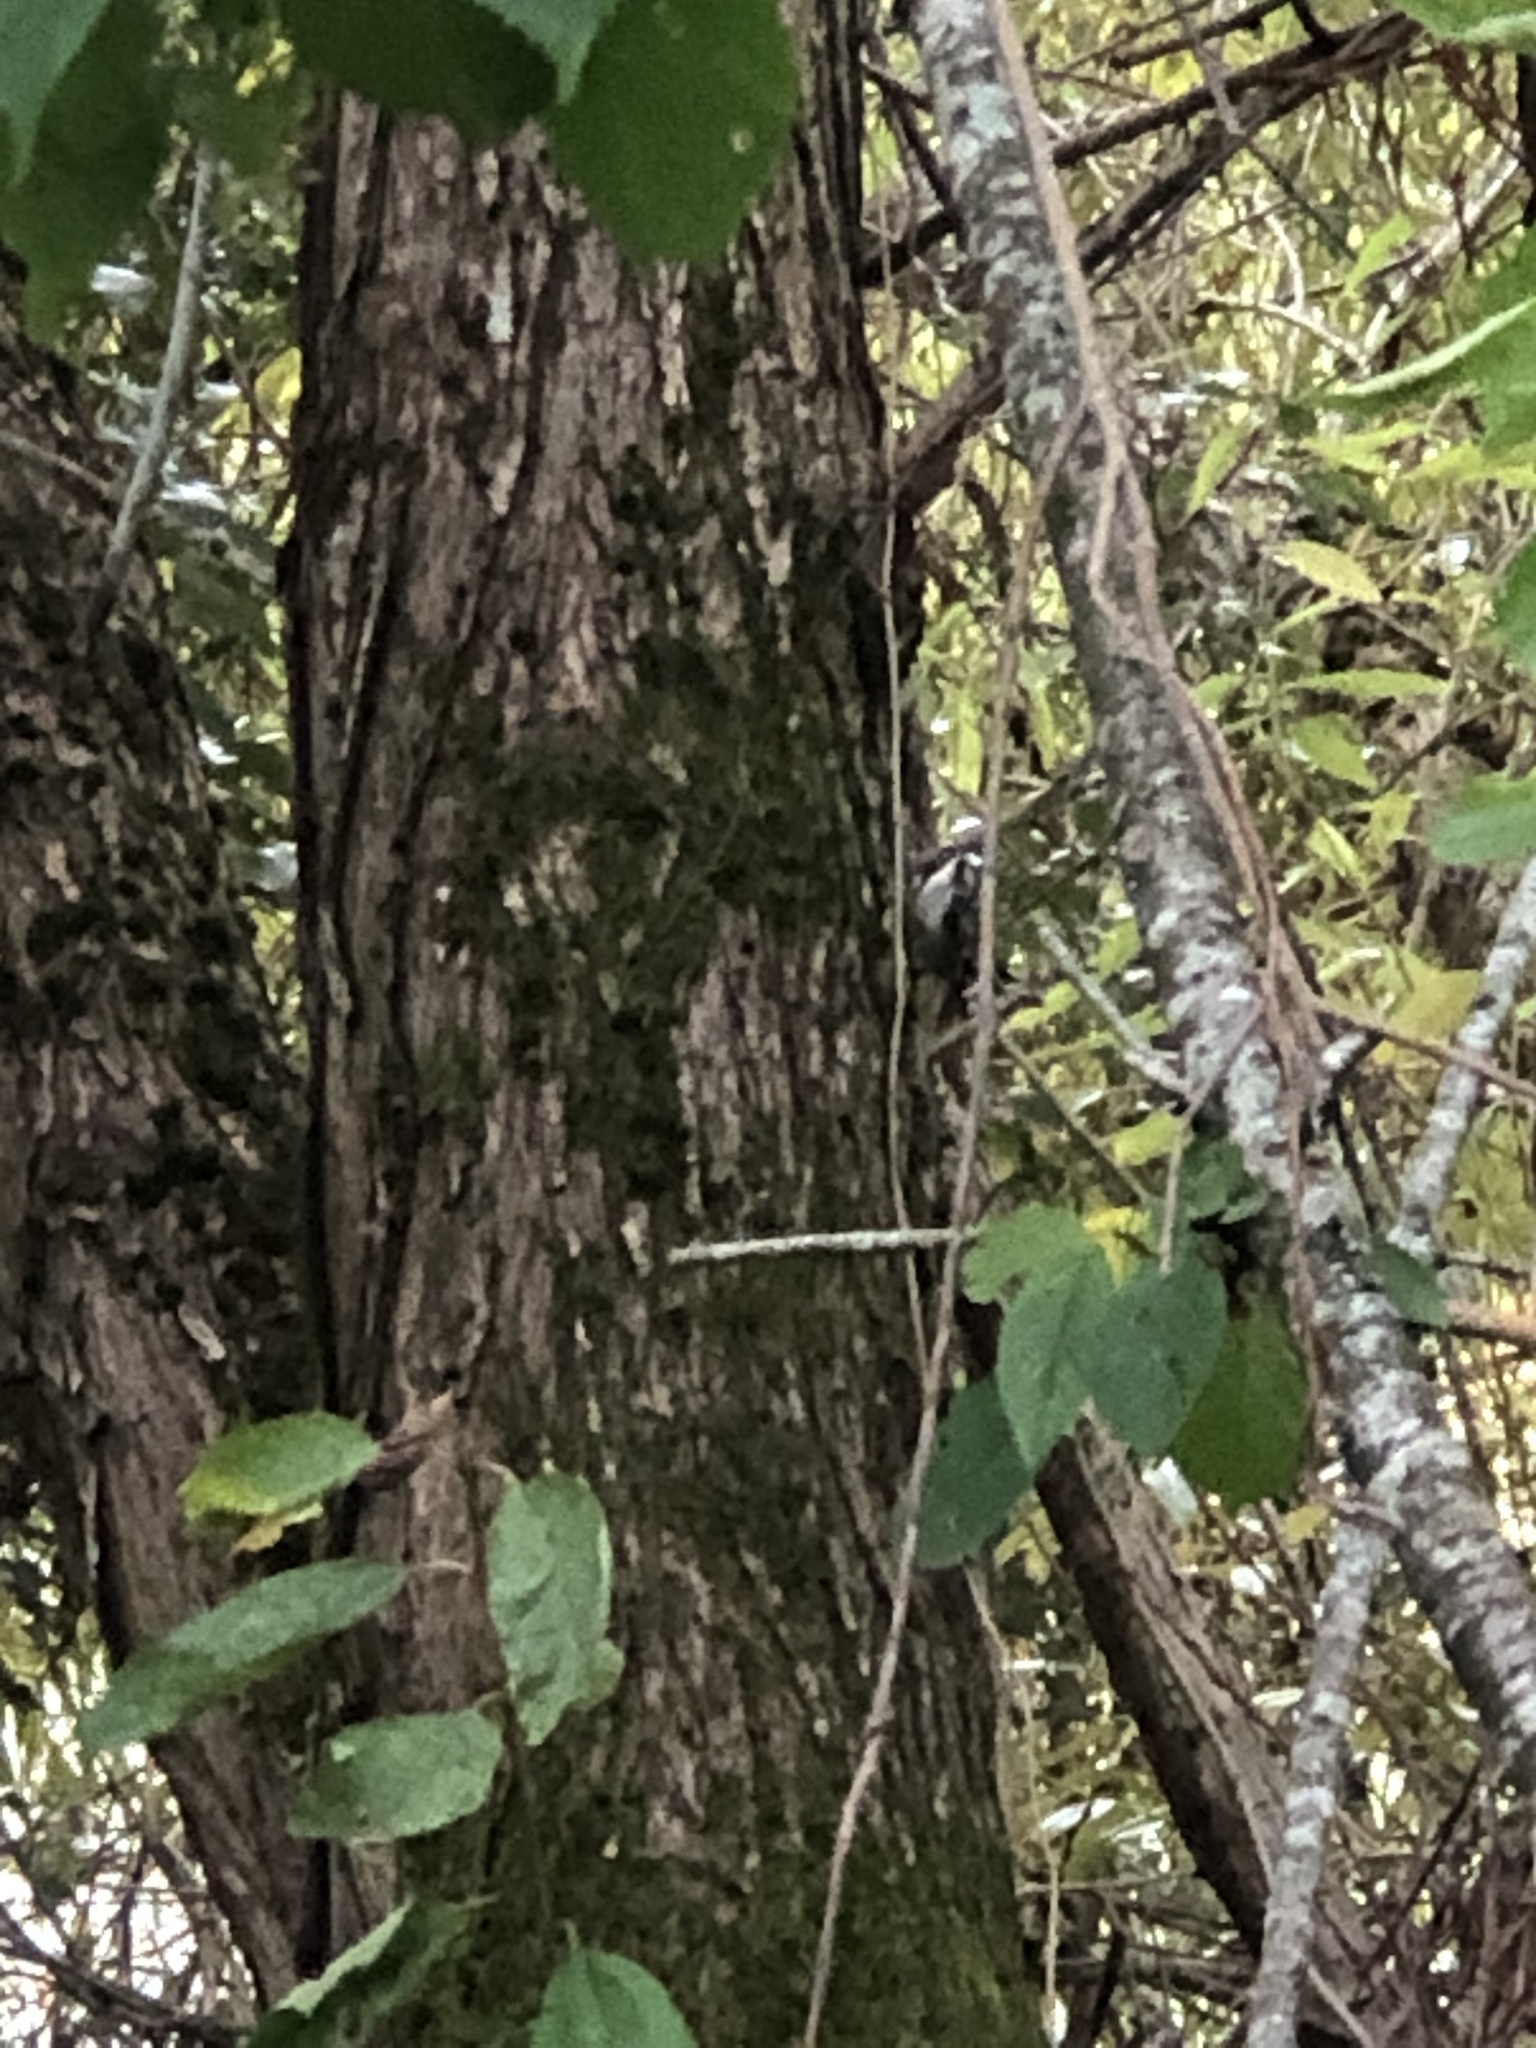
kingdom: Animalia
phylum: Chordata
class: Aves
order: Passeriformes
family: Certhiidae
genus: Certhia
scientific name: Certhia americana
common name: Brown creeper
